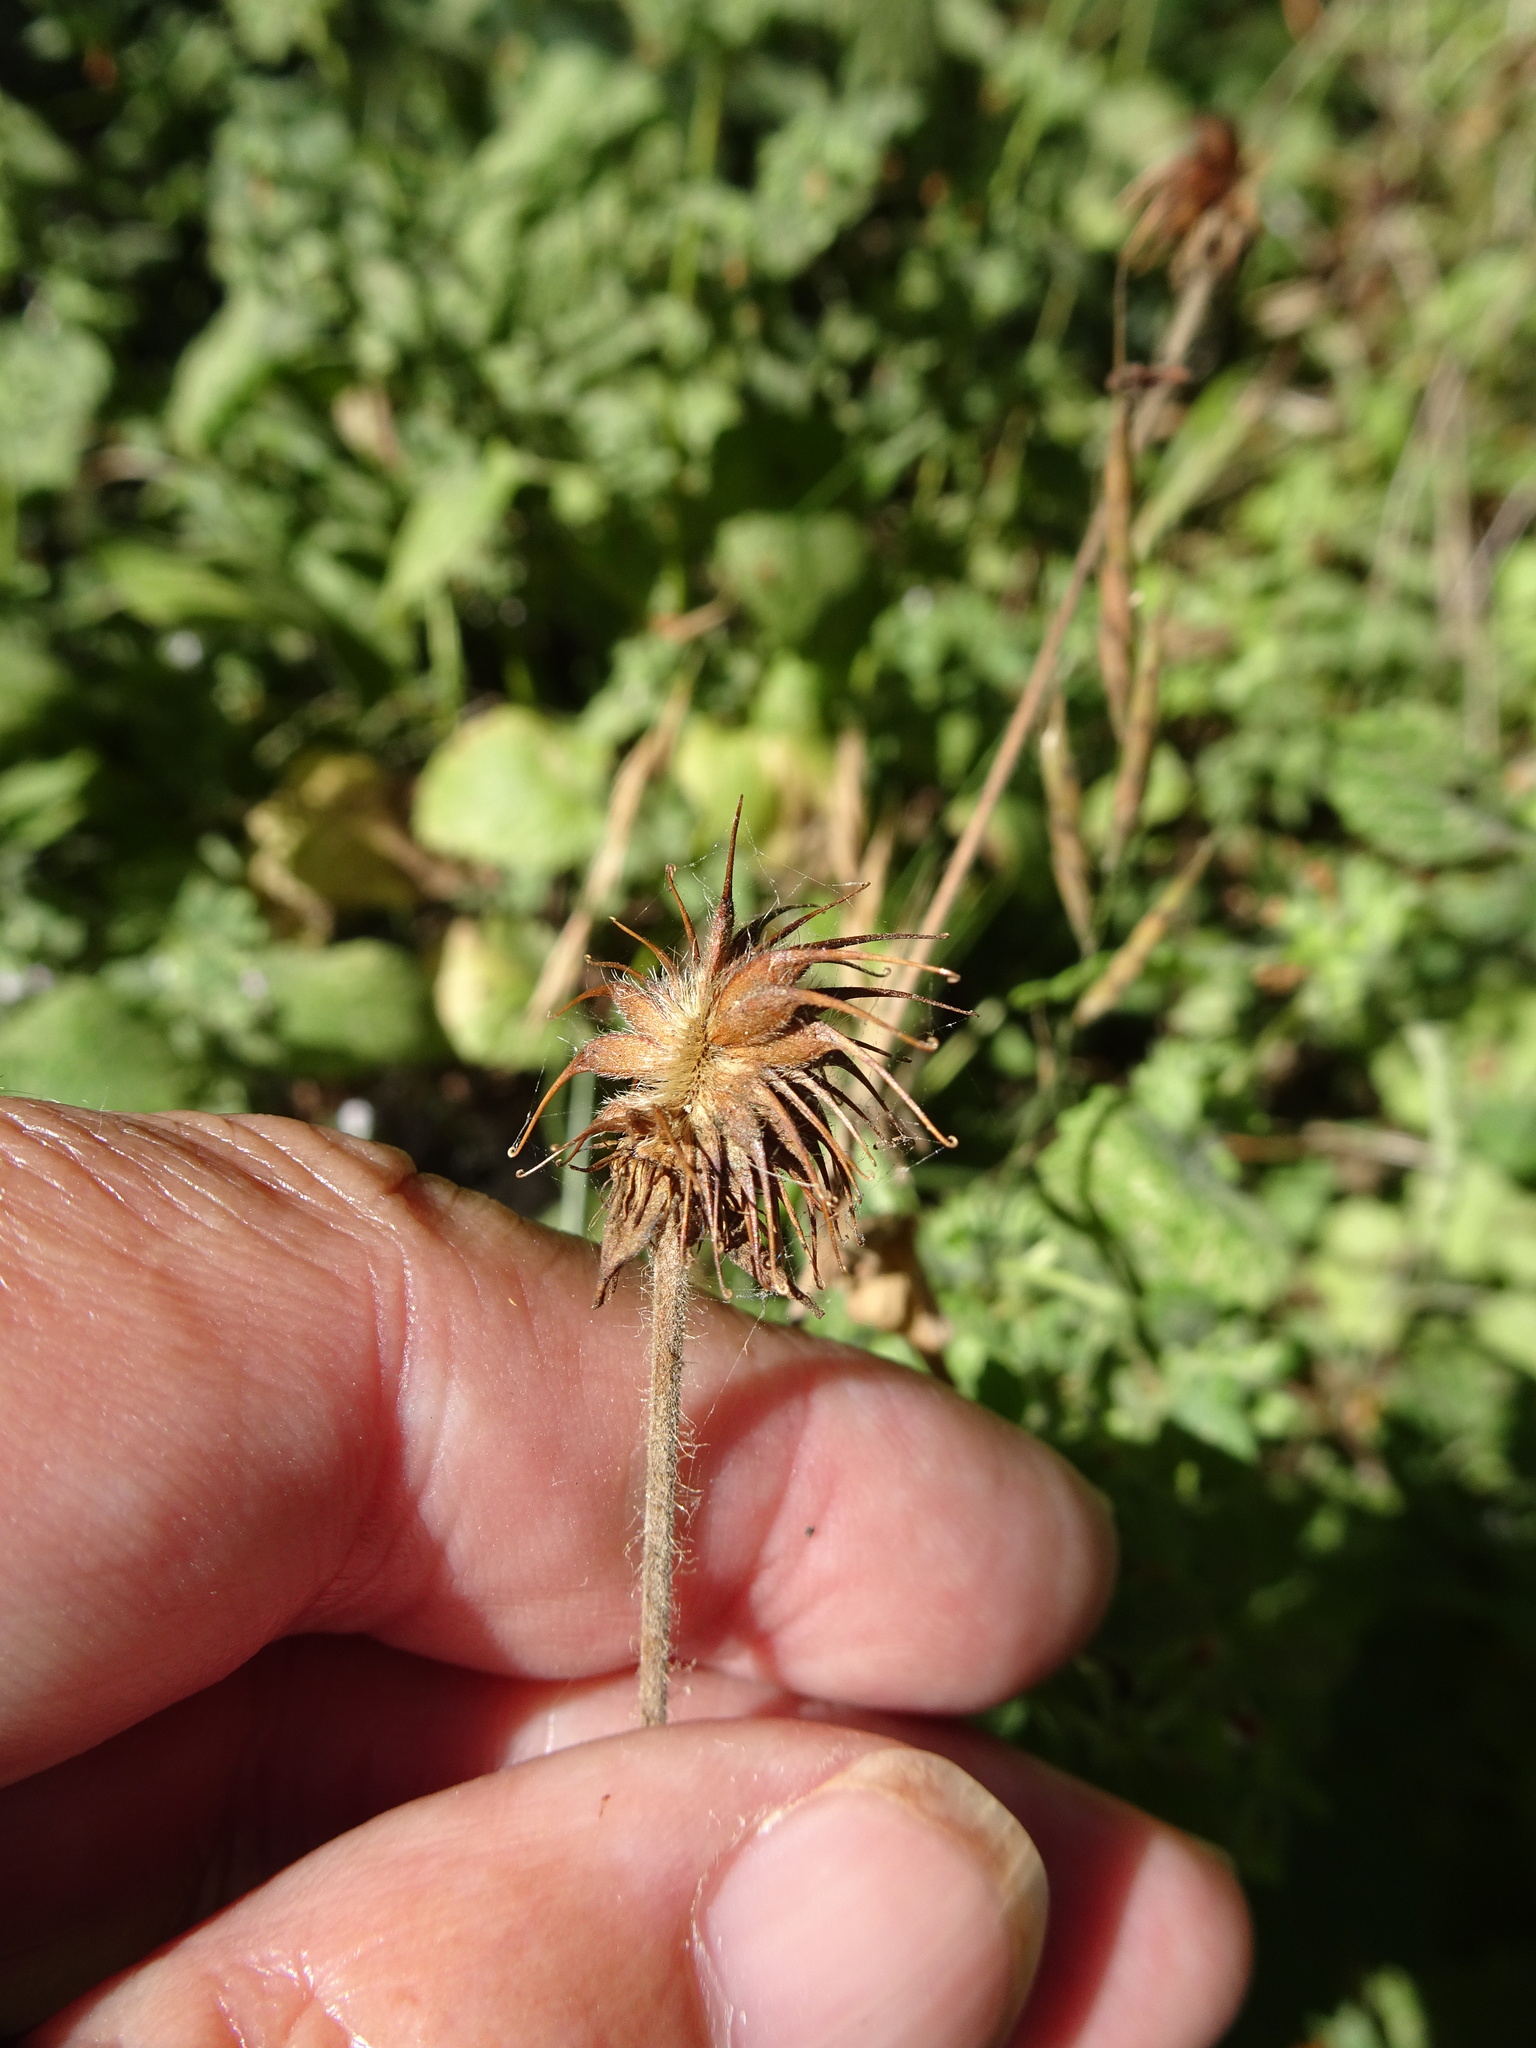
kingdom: Plantae
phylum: Tracheophyta
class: Magnoliopsida
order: Rosales
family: Rosaceae
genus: Geum
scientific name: Geum urbanum
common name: Wood avens
